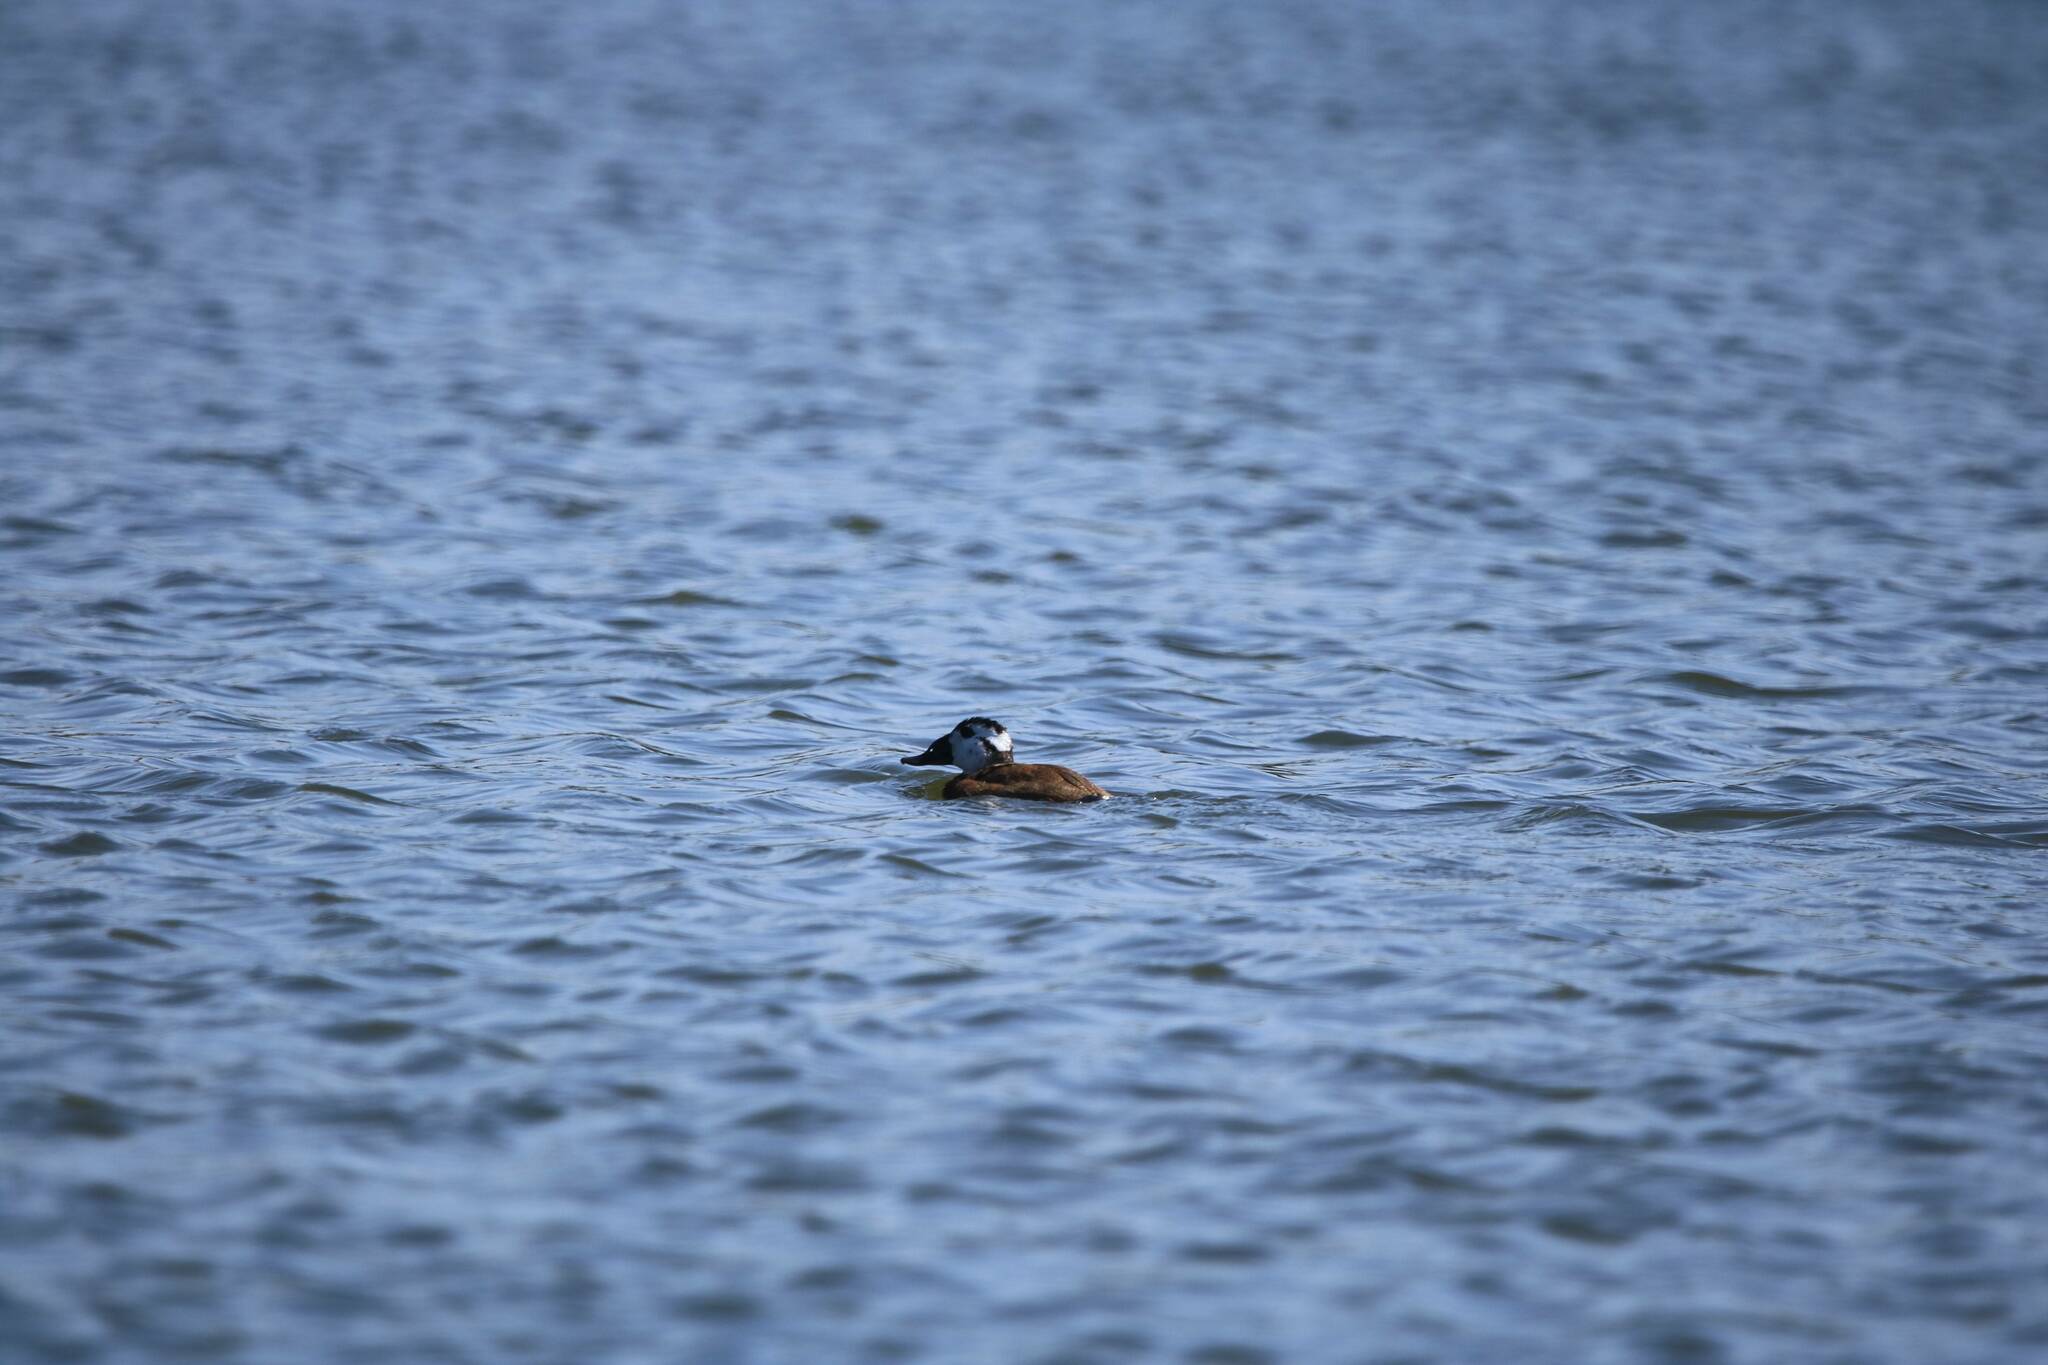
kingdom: Animalia
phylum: Chordata
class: Aves
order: Anseriformes
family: Anatidae
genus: Oxyura
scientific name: Oxyura leucocephala
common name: White-headed duck
